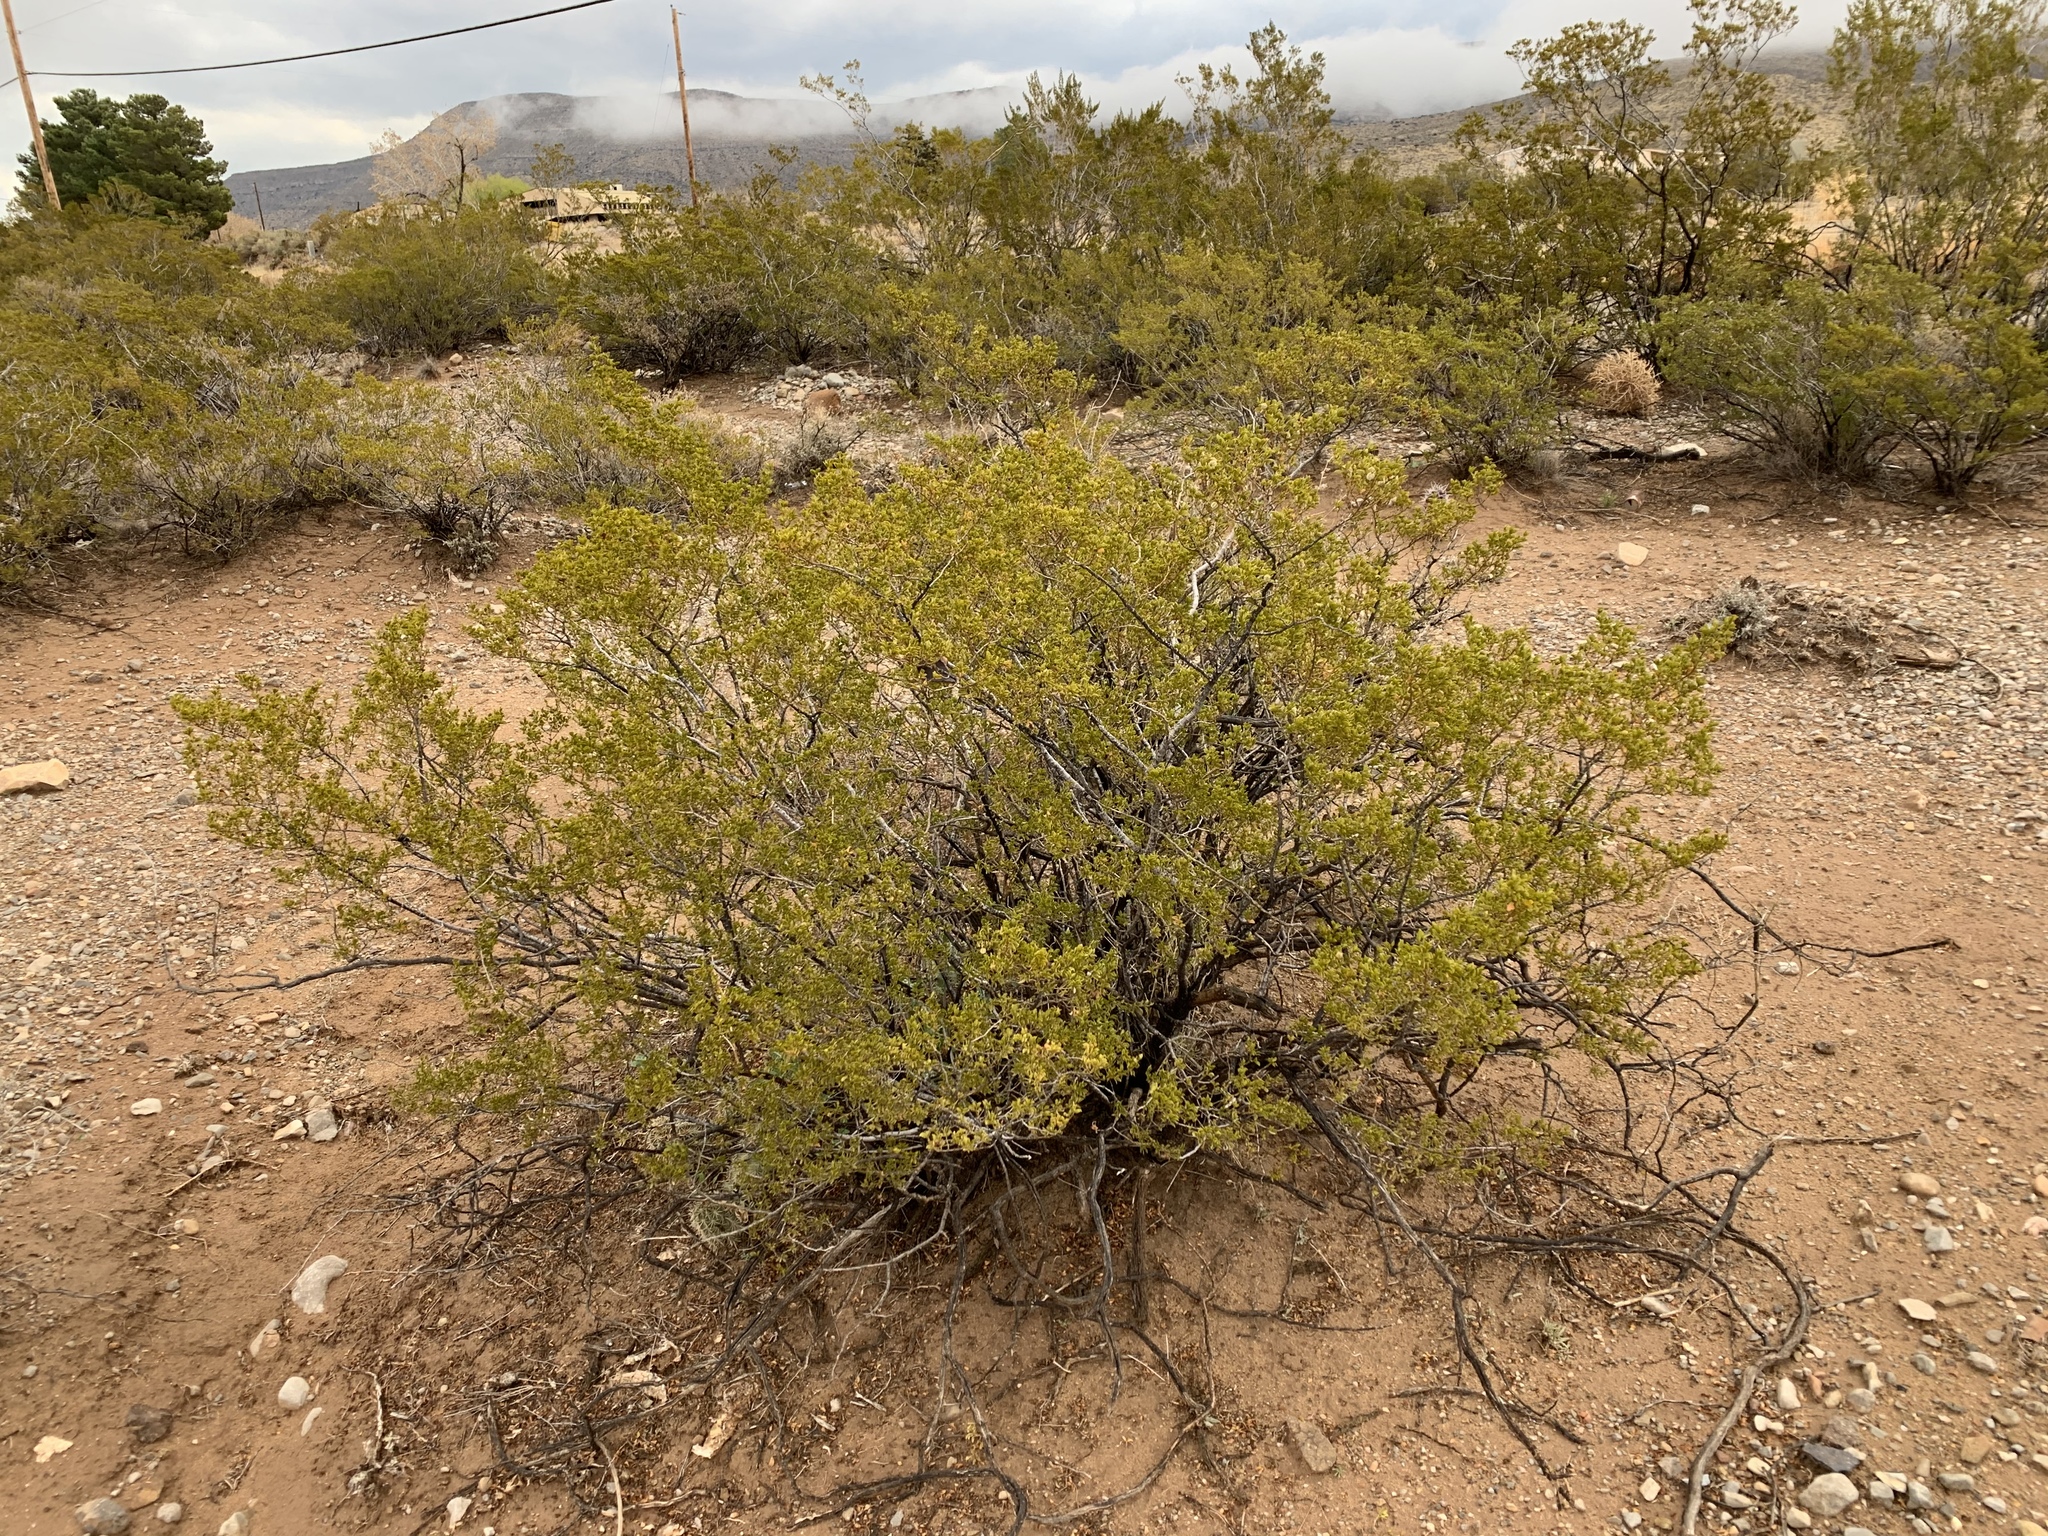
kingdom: Plantae
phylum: Tracheophyta
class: Magnoliopsida
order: Zygophyllales
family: Zygophyllaceae
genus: Larrea
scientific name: Larrea tridentata
